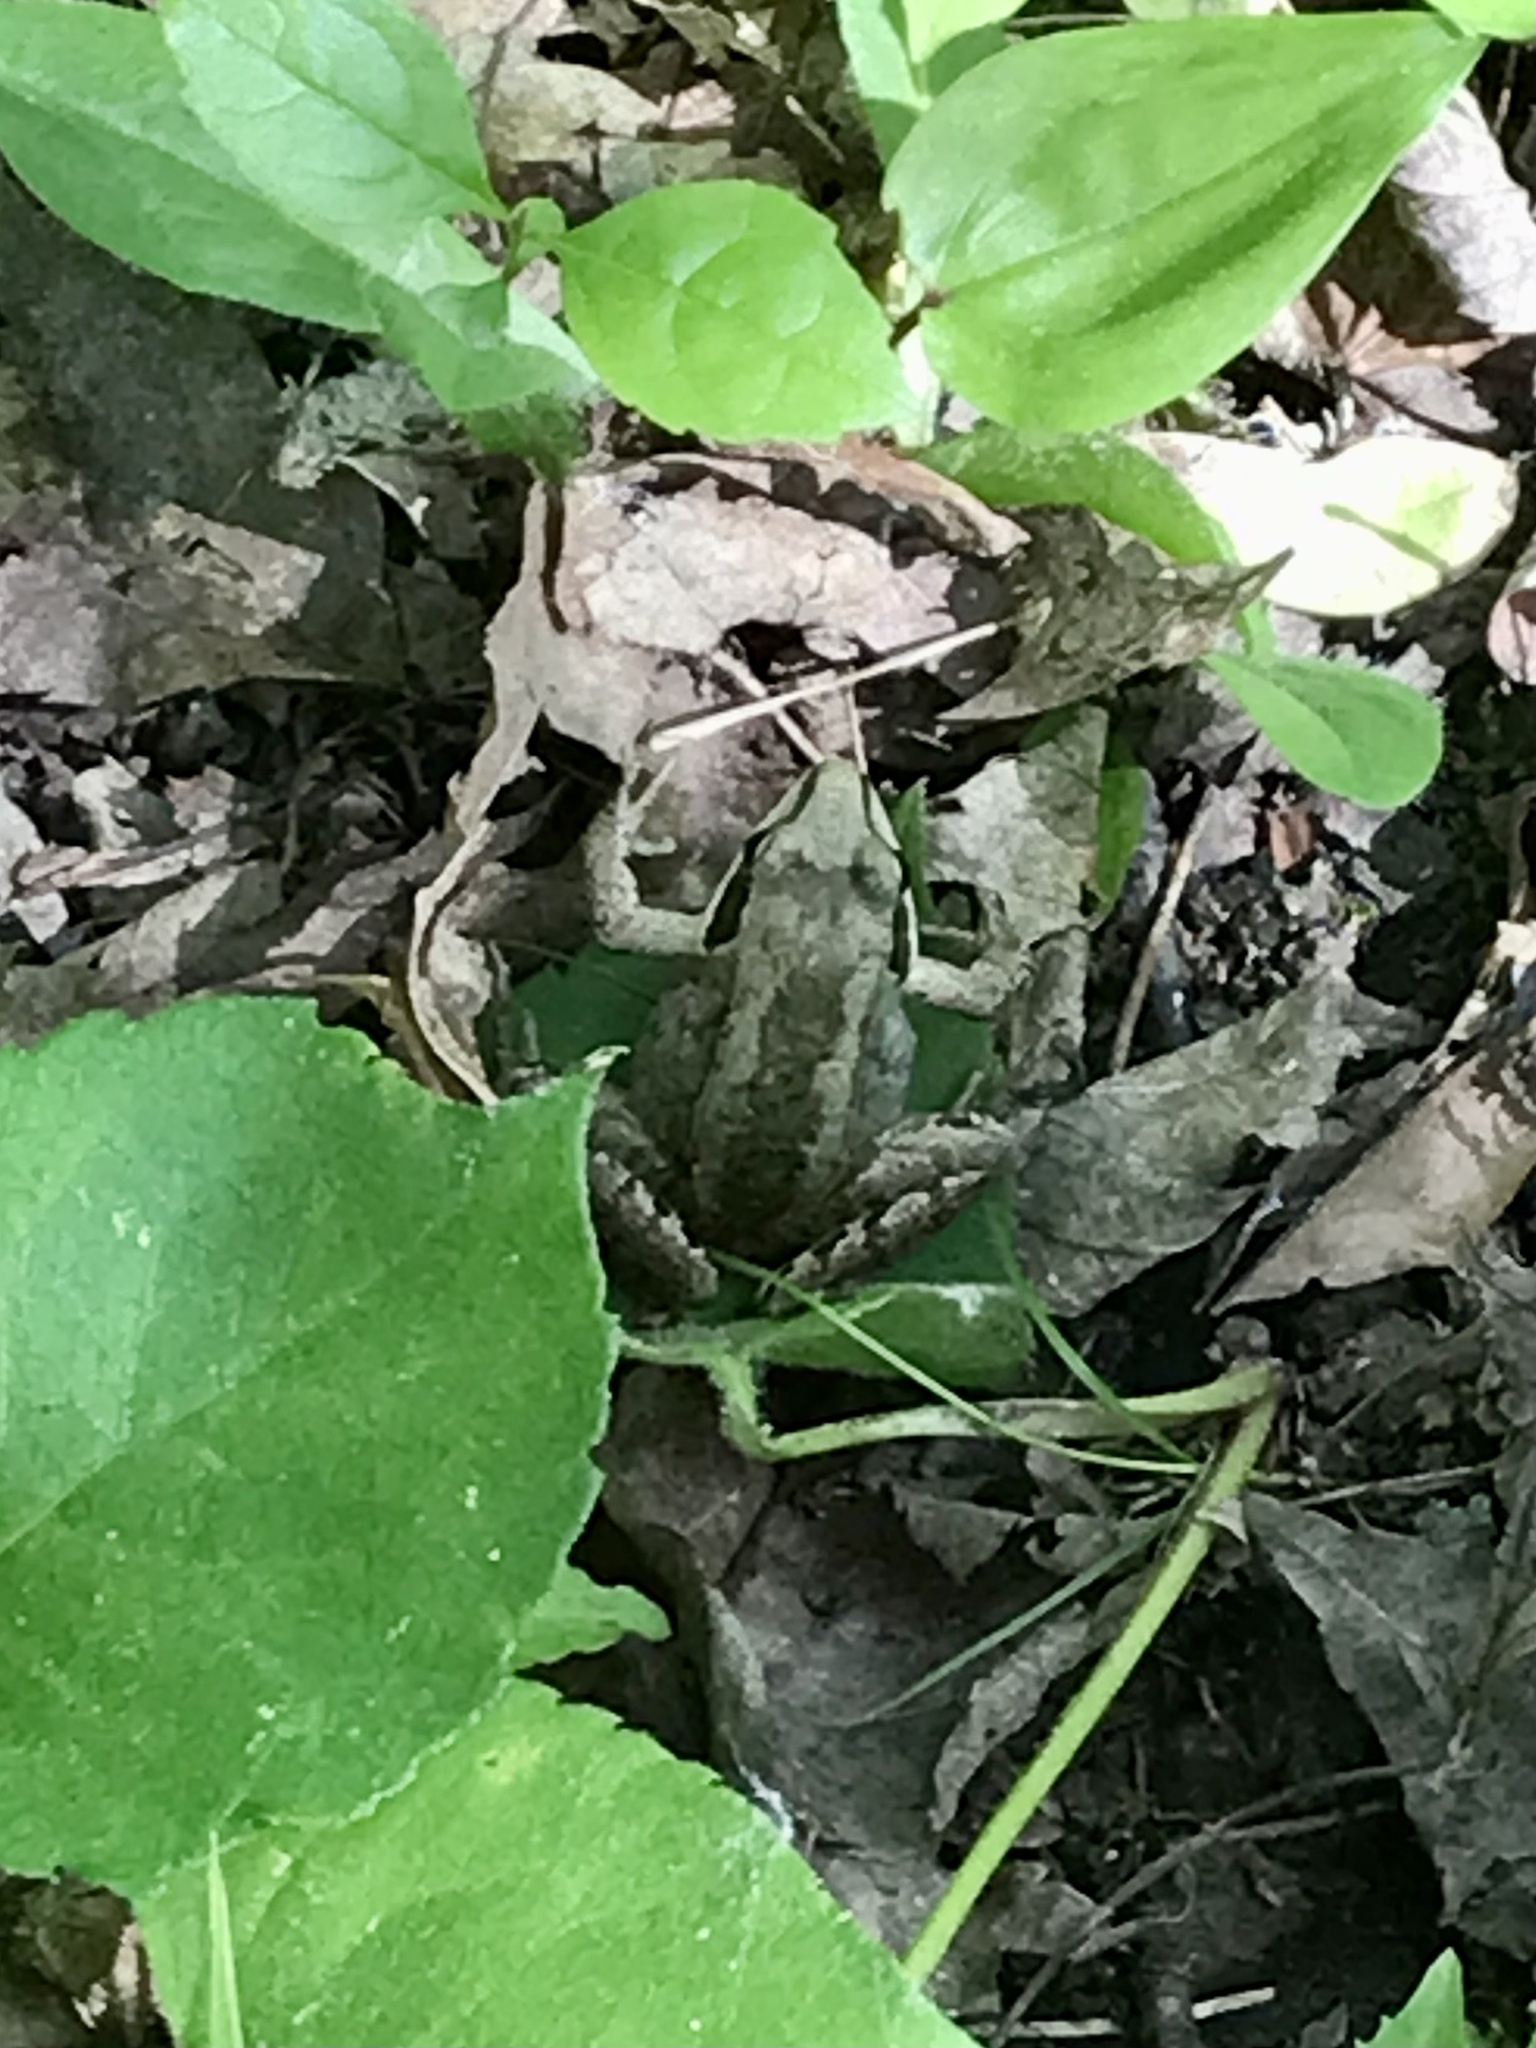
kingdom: Animalia
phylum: Chordata
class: Amphibia
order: Anura
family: Ranidae
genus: Lithobates
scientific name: Lithobates sylvaticus
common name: Wood frog
